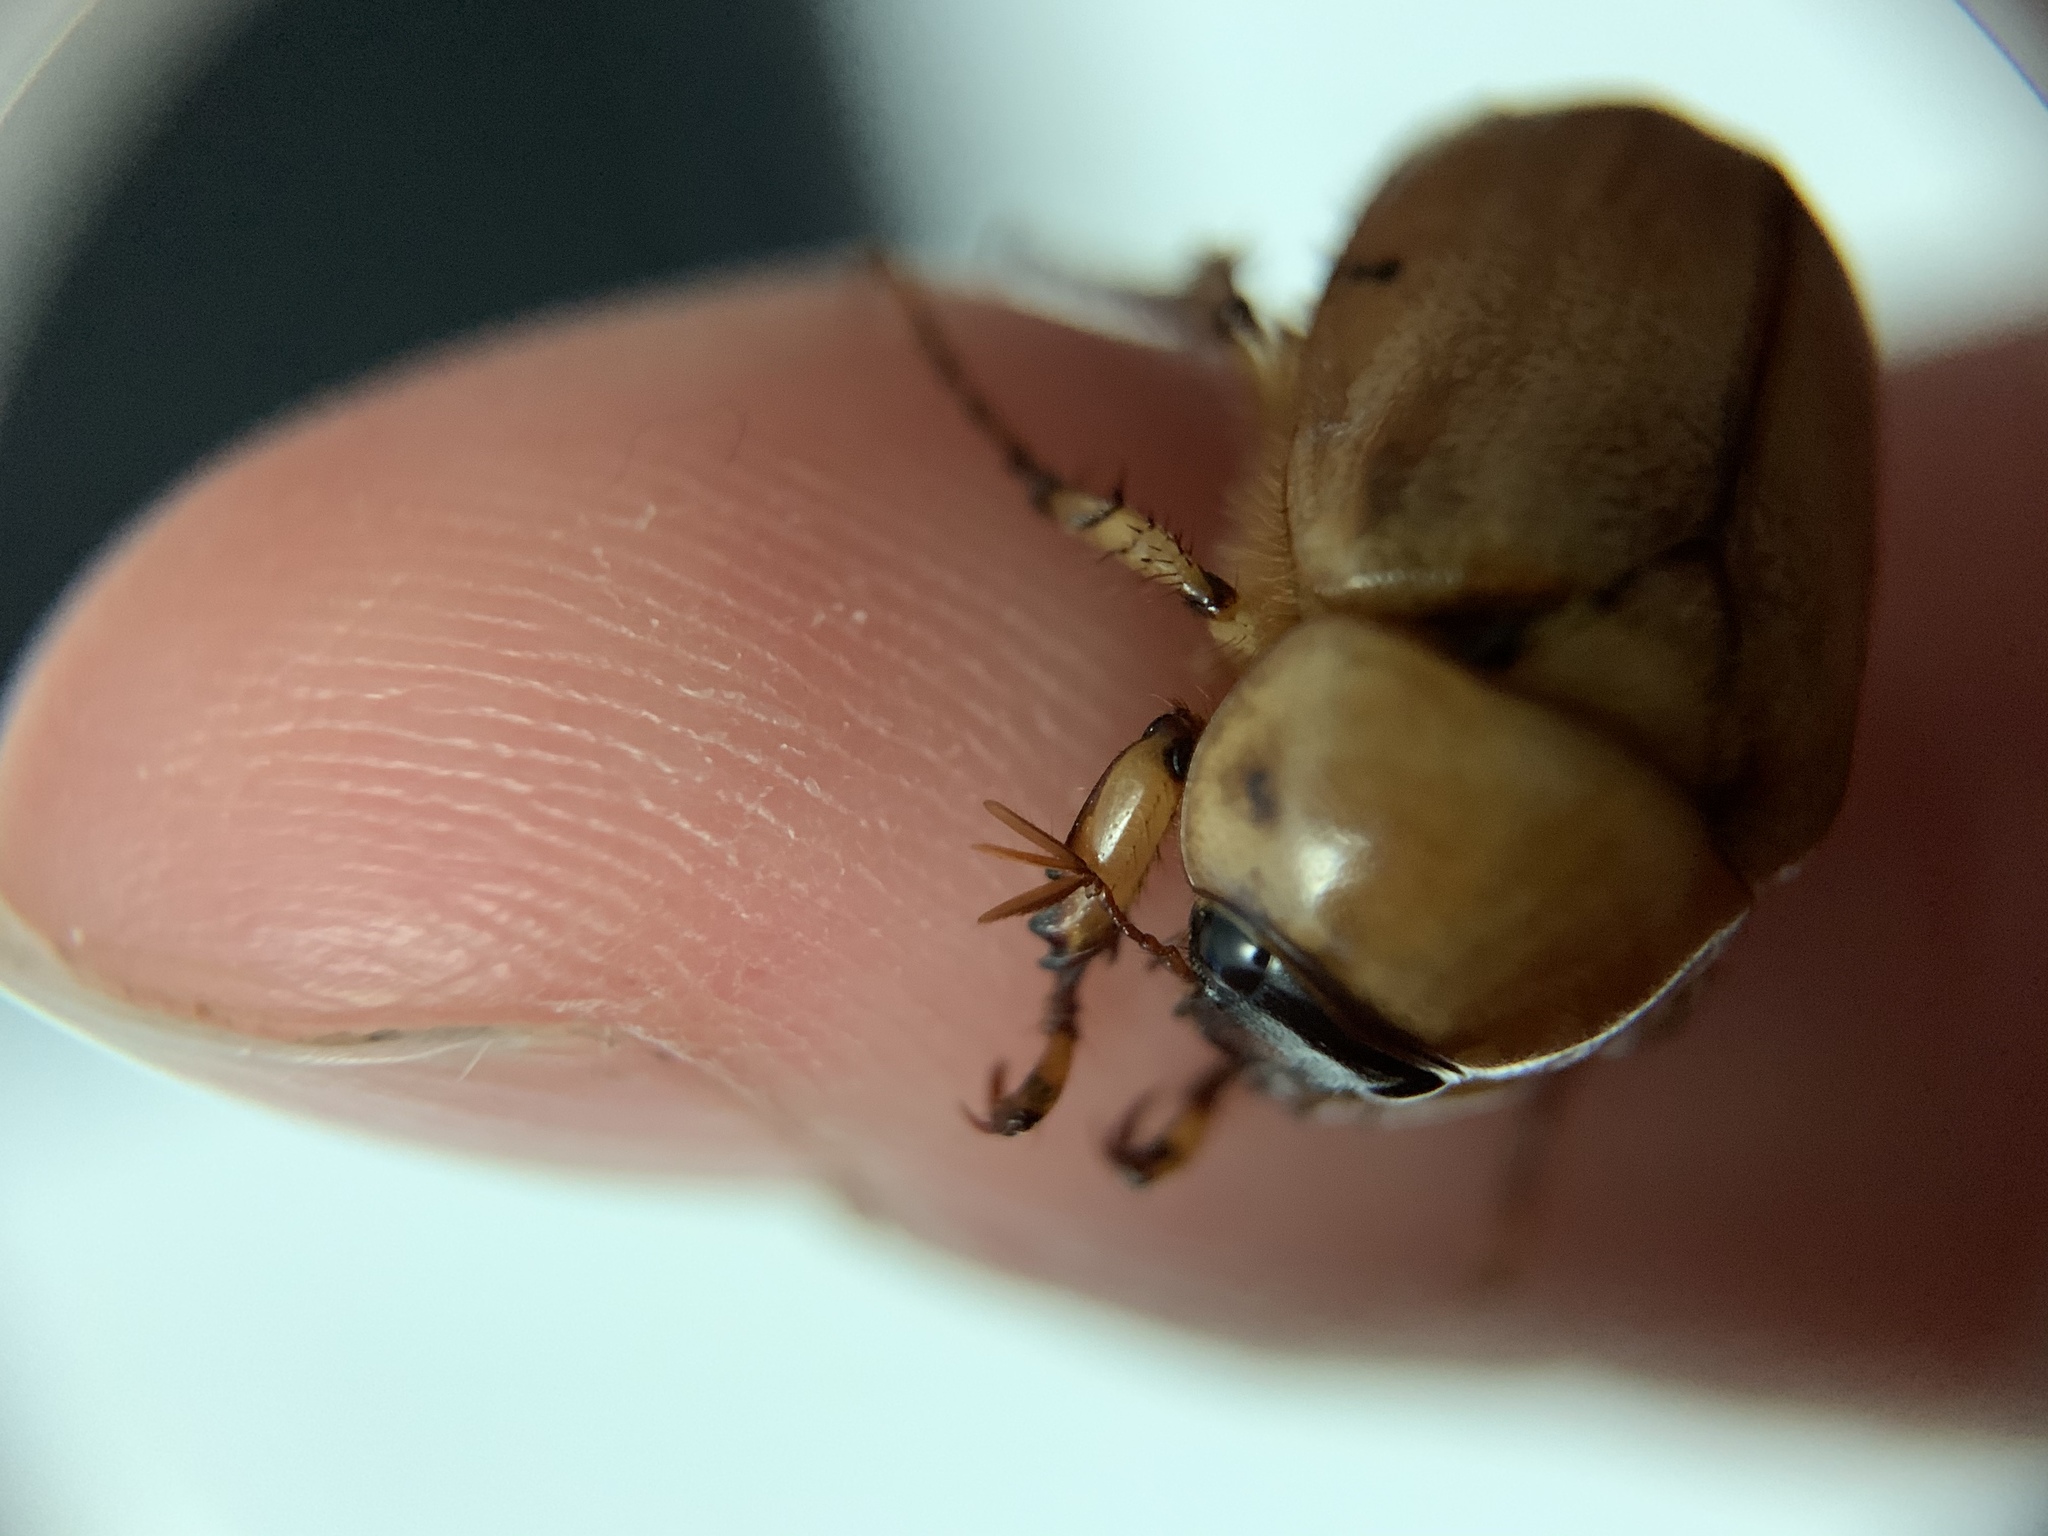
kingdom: Animalia
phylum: Arthropoda
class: Insecta
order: Coleoptera
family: Scarabaeidae
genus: Cyclocephala
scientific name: Cyclocephala signaticollis
